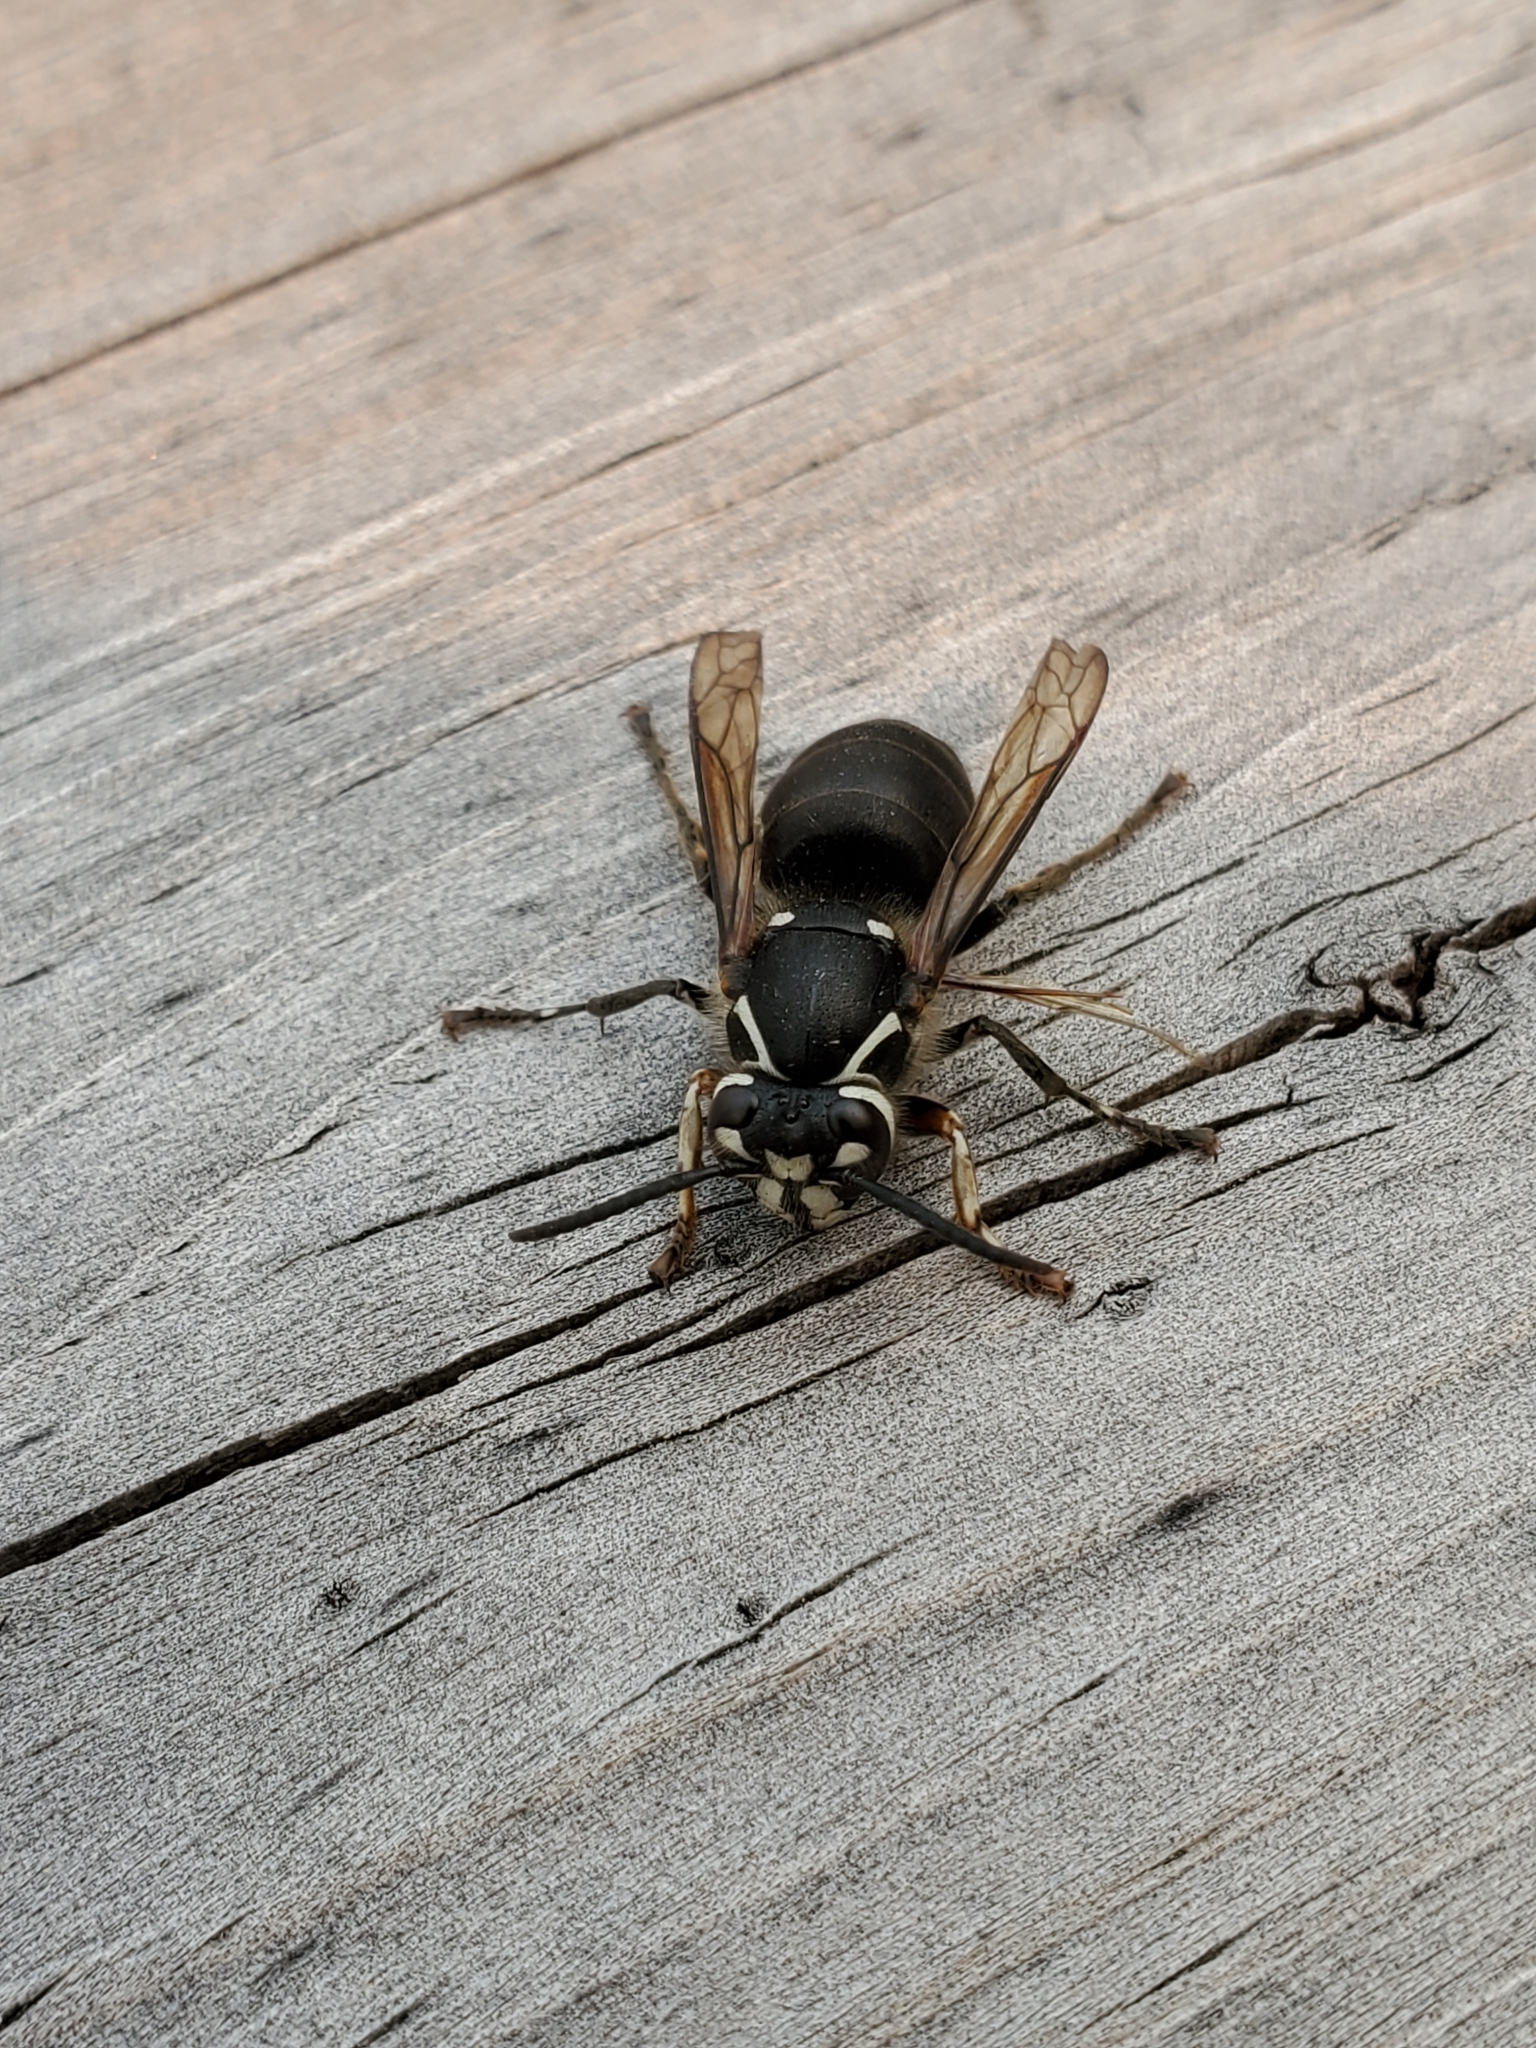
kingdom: Animalia
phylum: Arthropoda
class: Insecta
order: Hymenoptera
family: Vespidae
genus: Dolichovespula
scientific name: Dolichovespula maculata
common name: Bald-faced hornet
